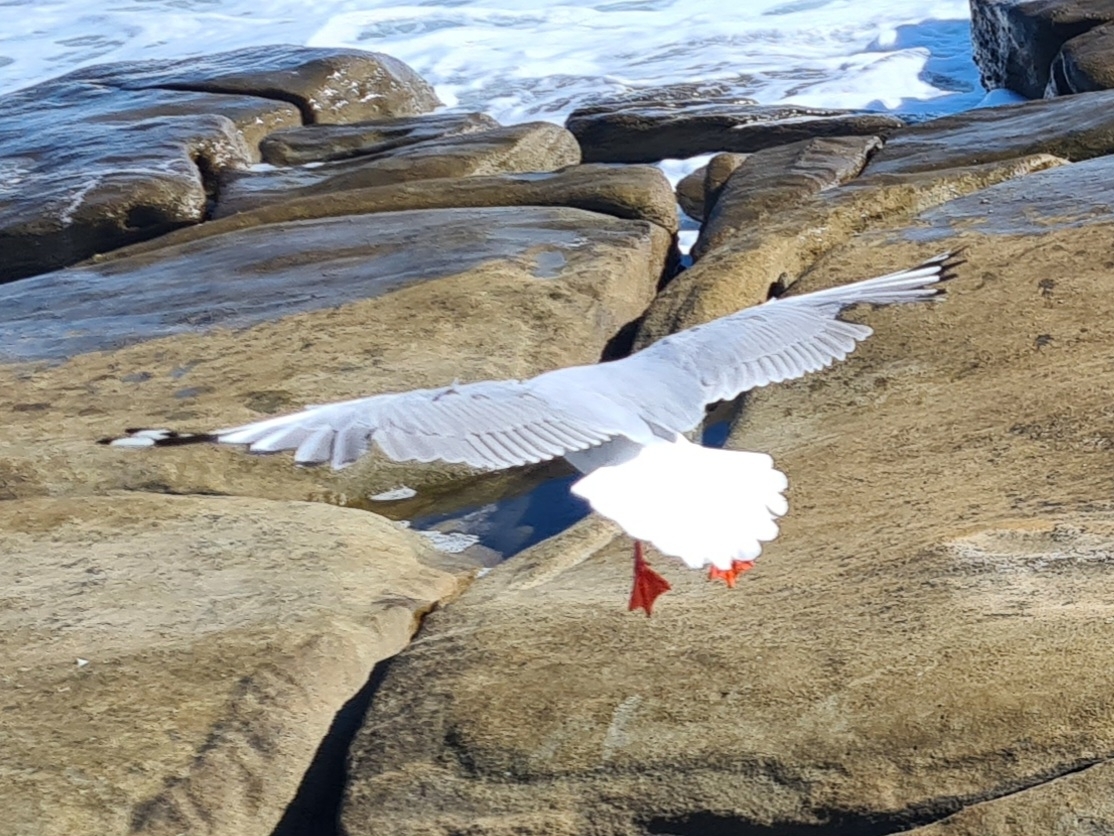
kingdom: Animalia
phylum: Chordata
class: Aves
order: Charadriiformes
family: Laridae
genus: Chroicocephalus
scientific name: Chroicocephalus novaehollandiae
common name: Silver gull
